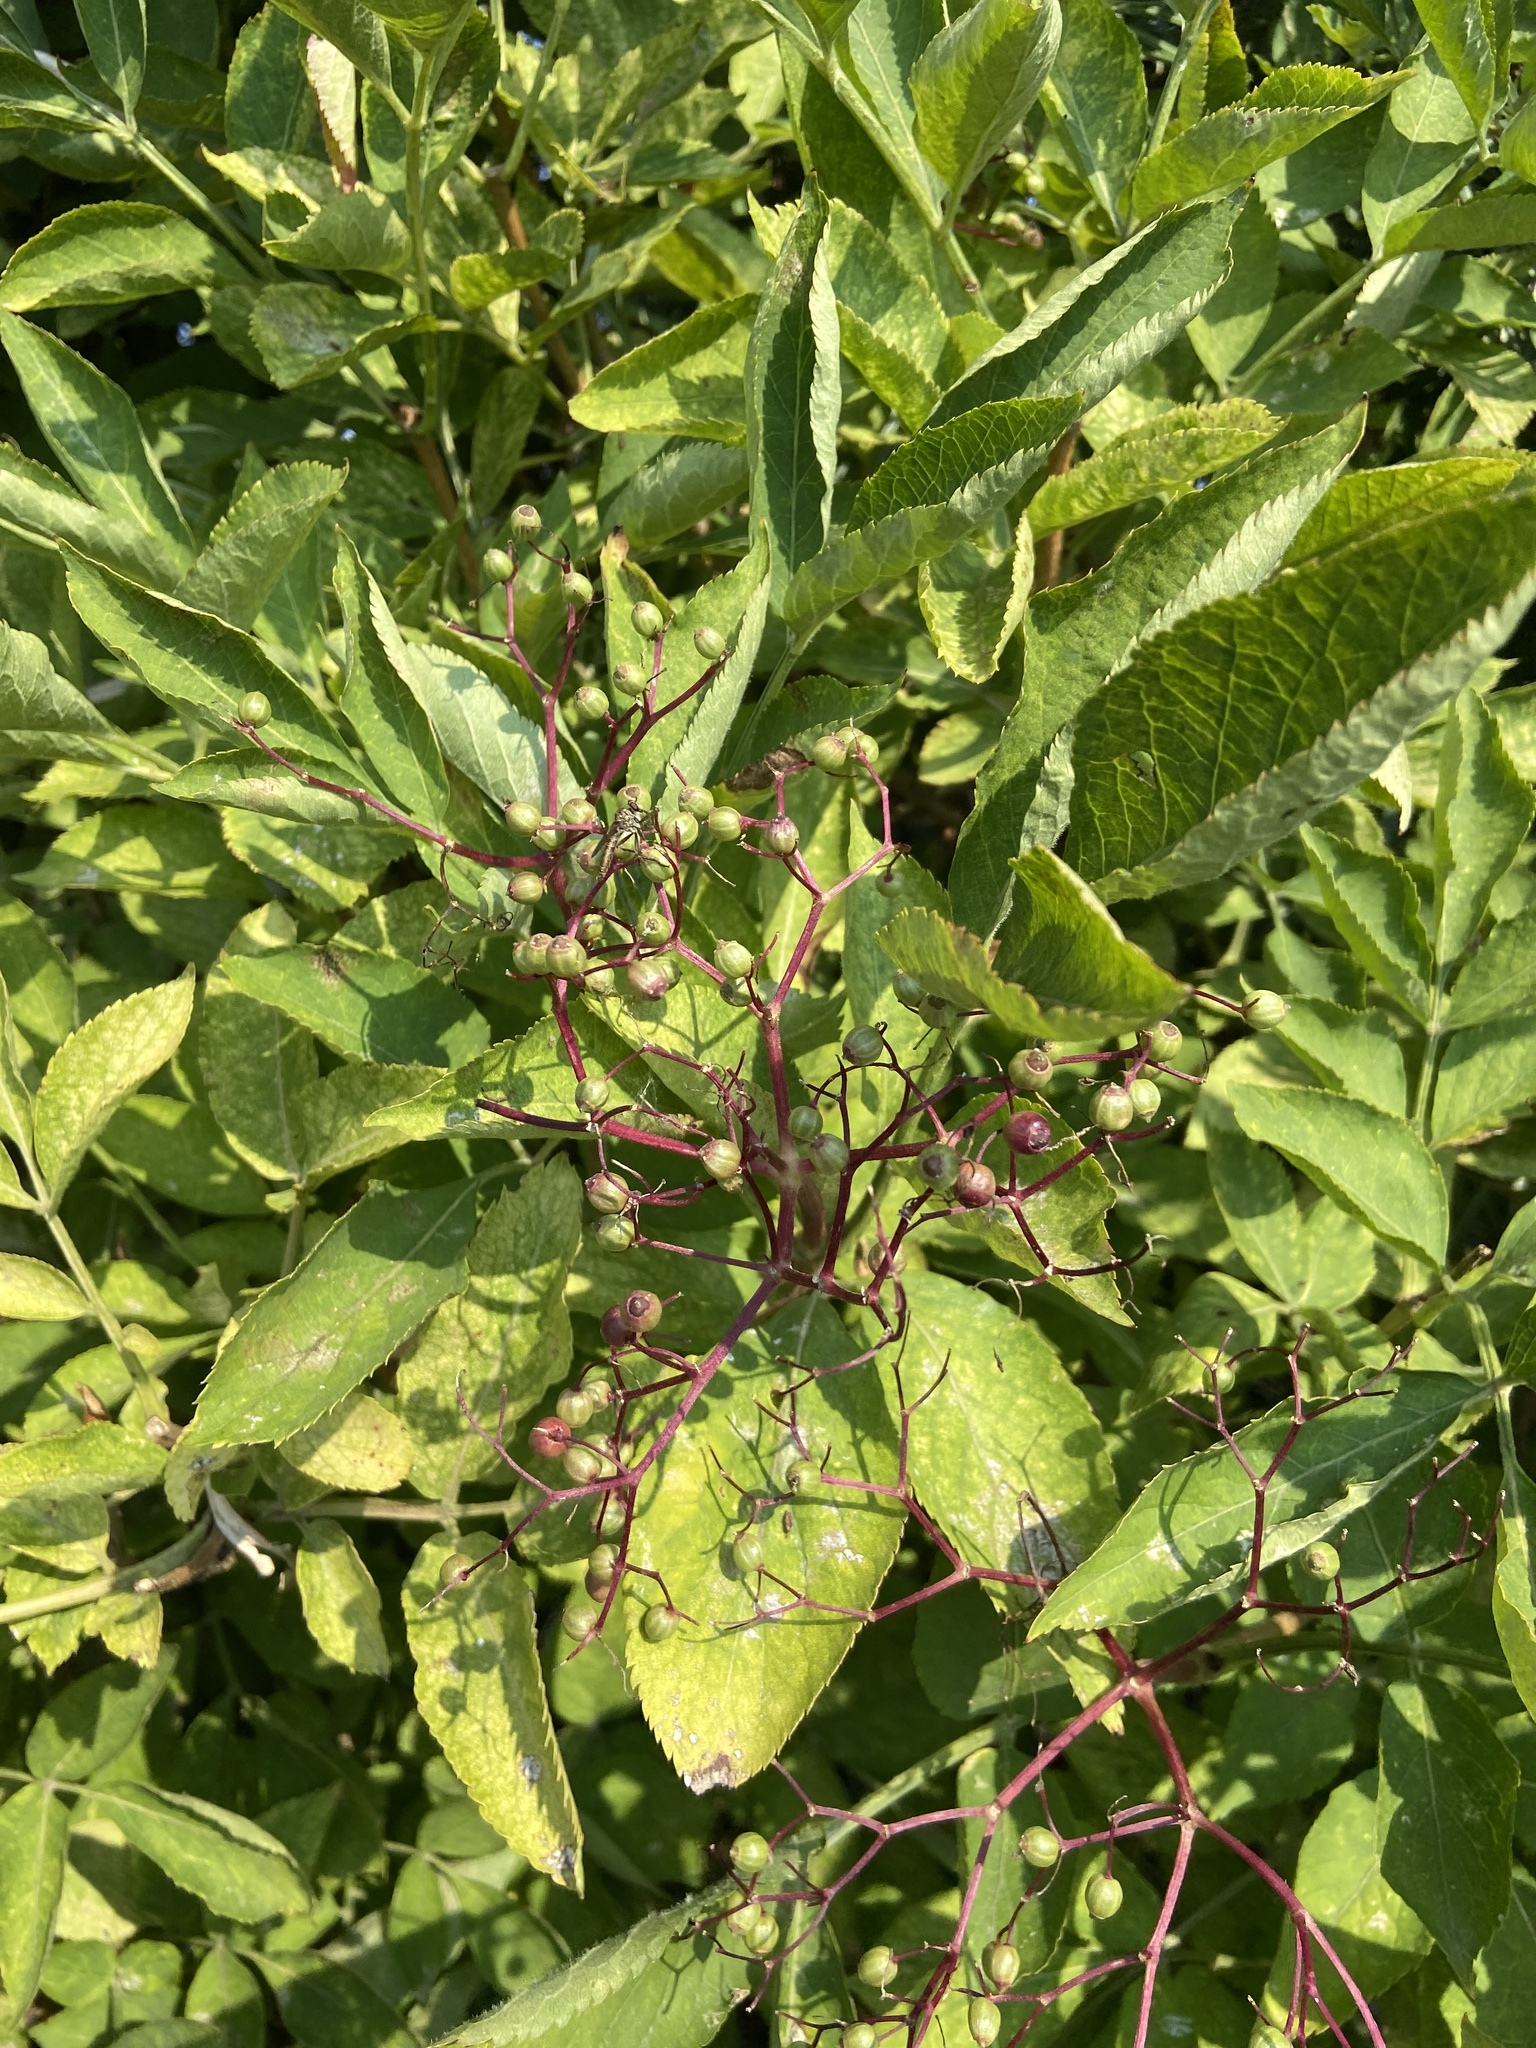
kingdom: Plantae
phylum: Tracheophyta
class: Magnoliopsida
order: Dipsacales
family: Viburnaceae
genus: Sambucus
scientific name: Sambucus nigra
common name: Elder
